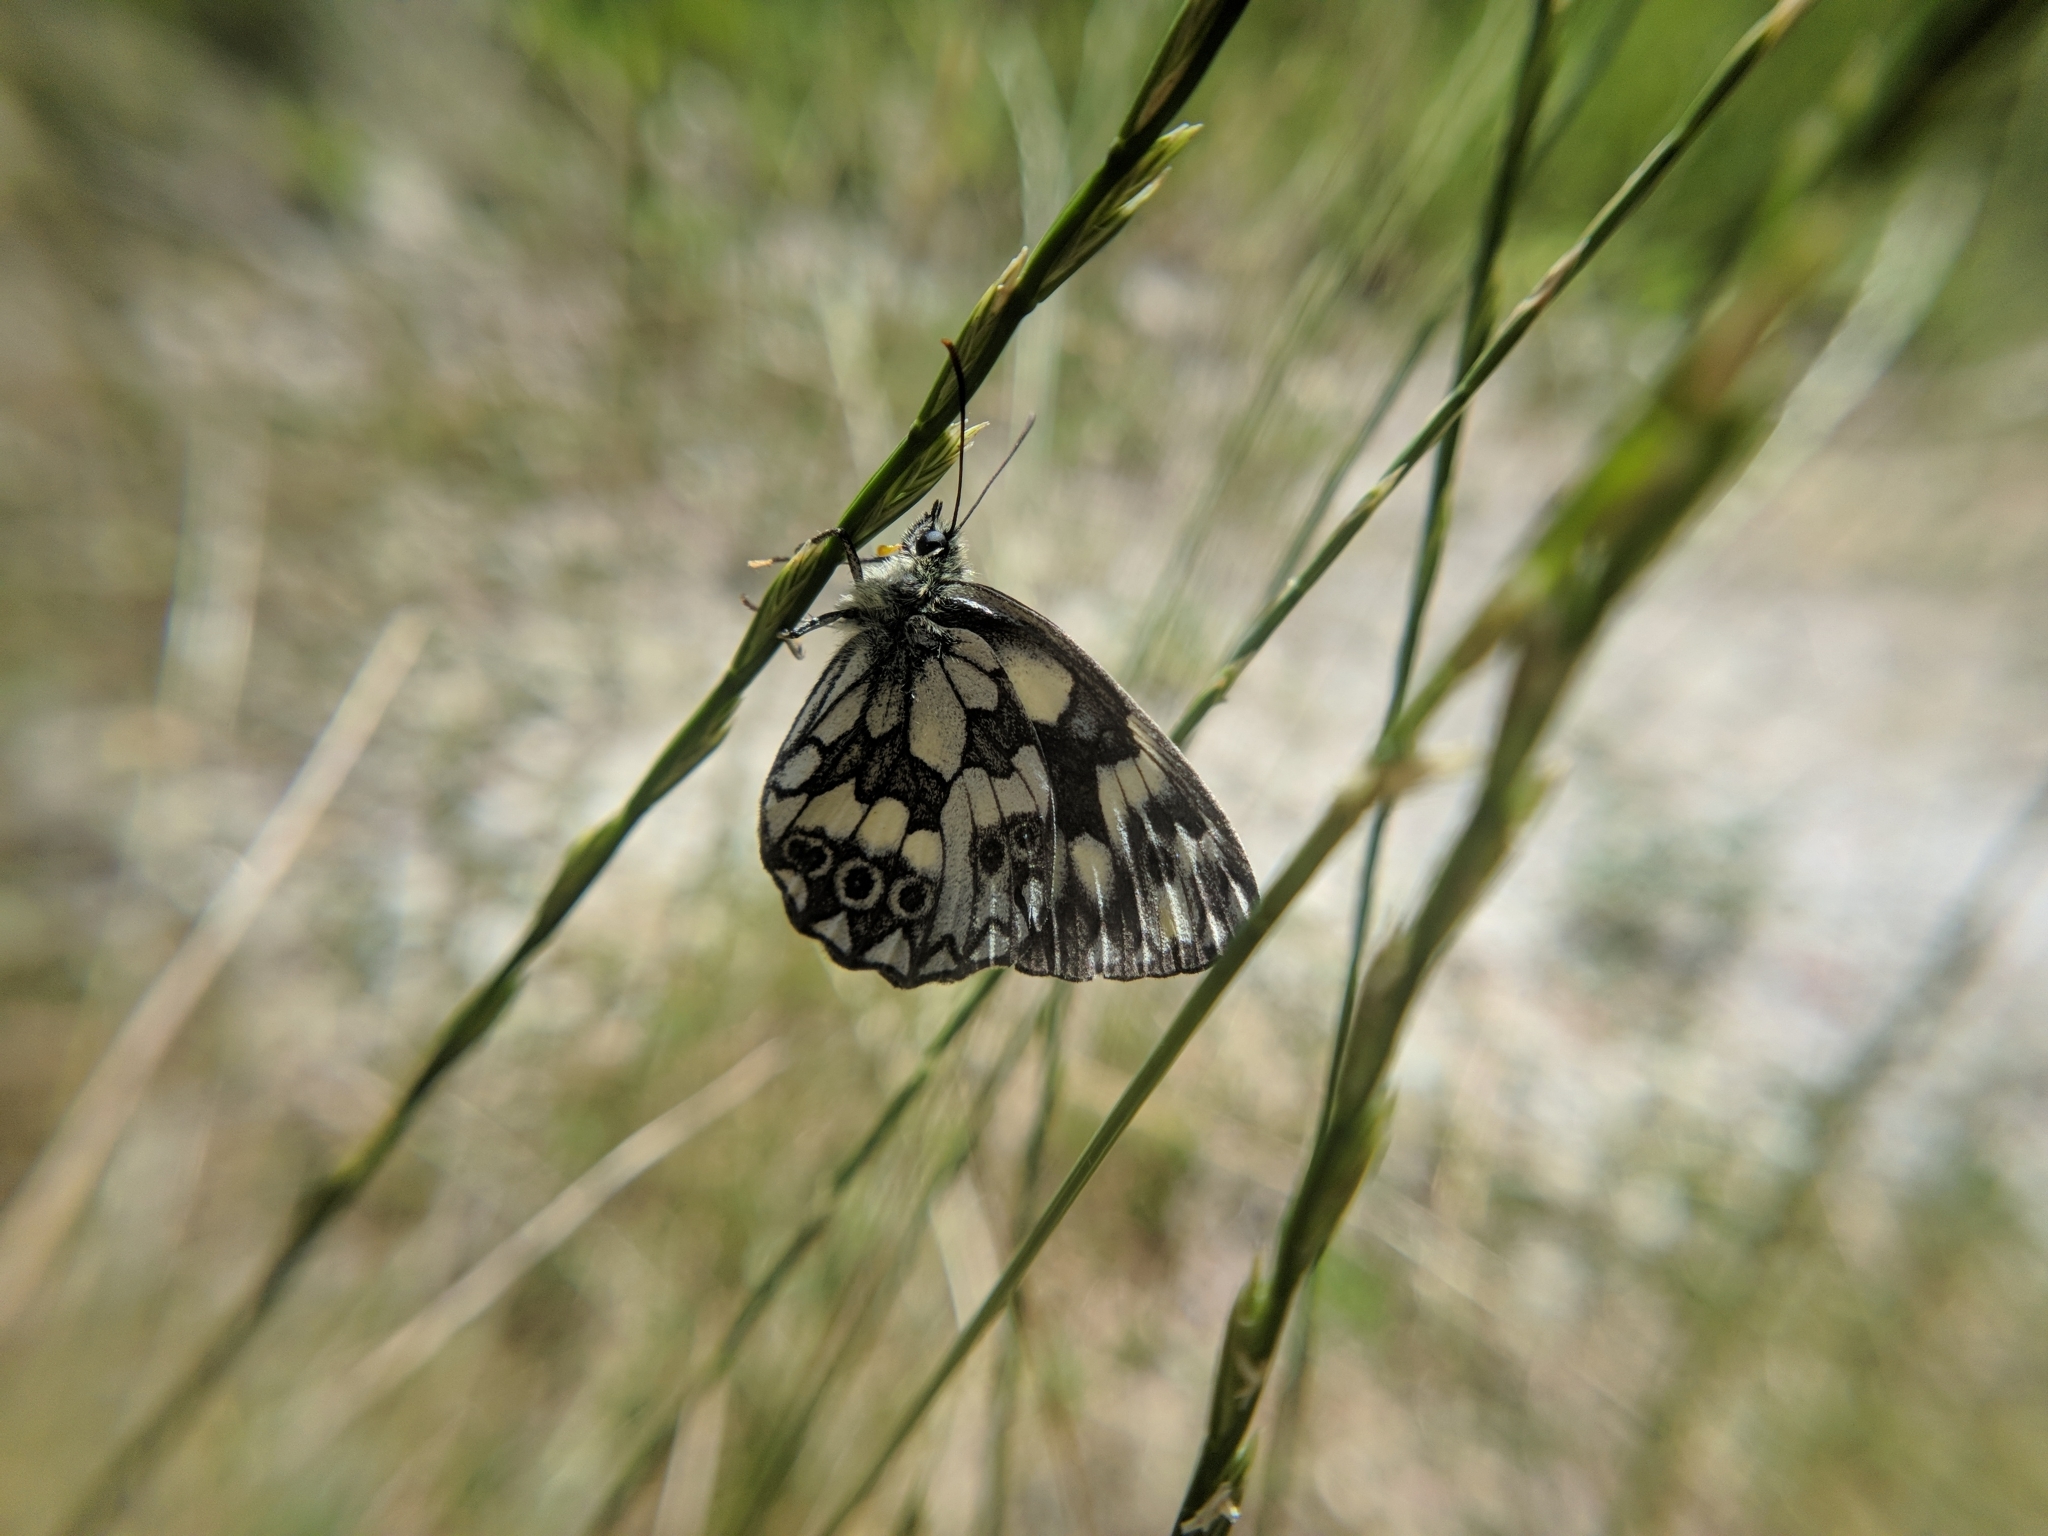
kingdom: Animalia
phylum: Arthropoda
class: Insecta
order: Lepidoptera
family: Nymphalidae
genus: Melanargia
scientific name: Melanargia galathea
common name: Marbled white
